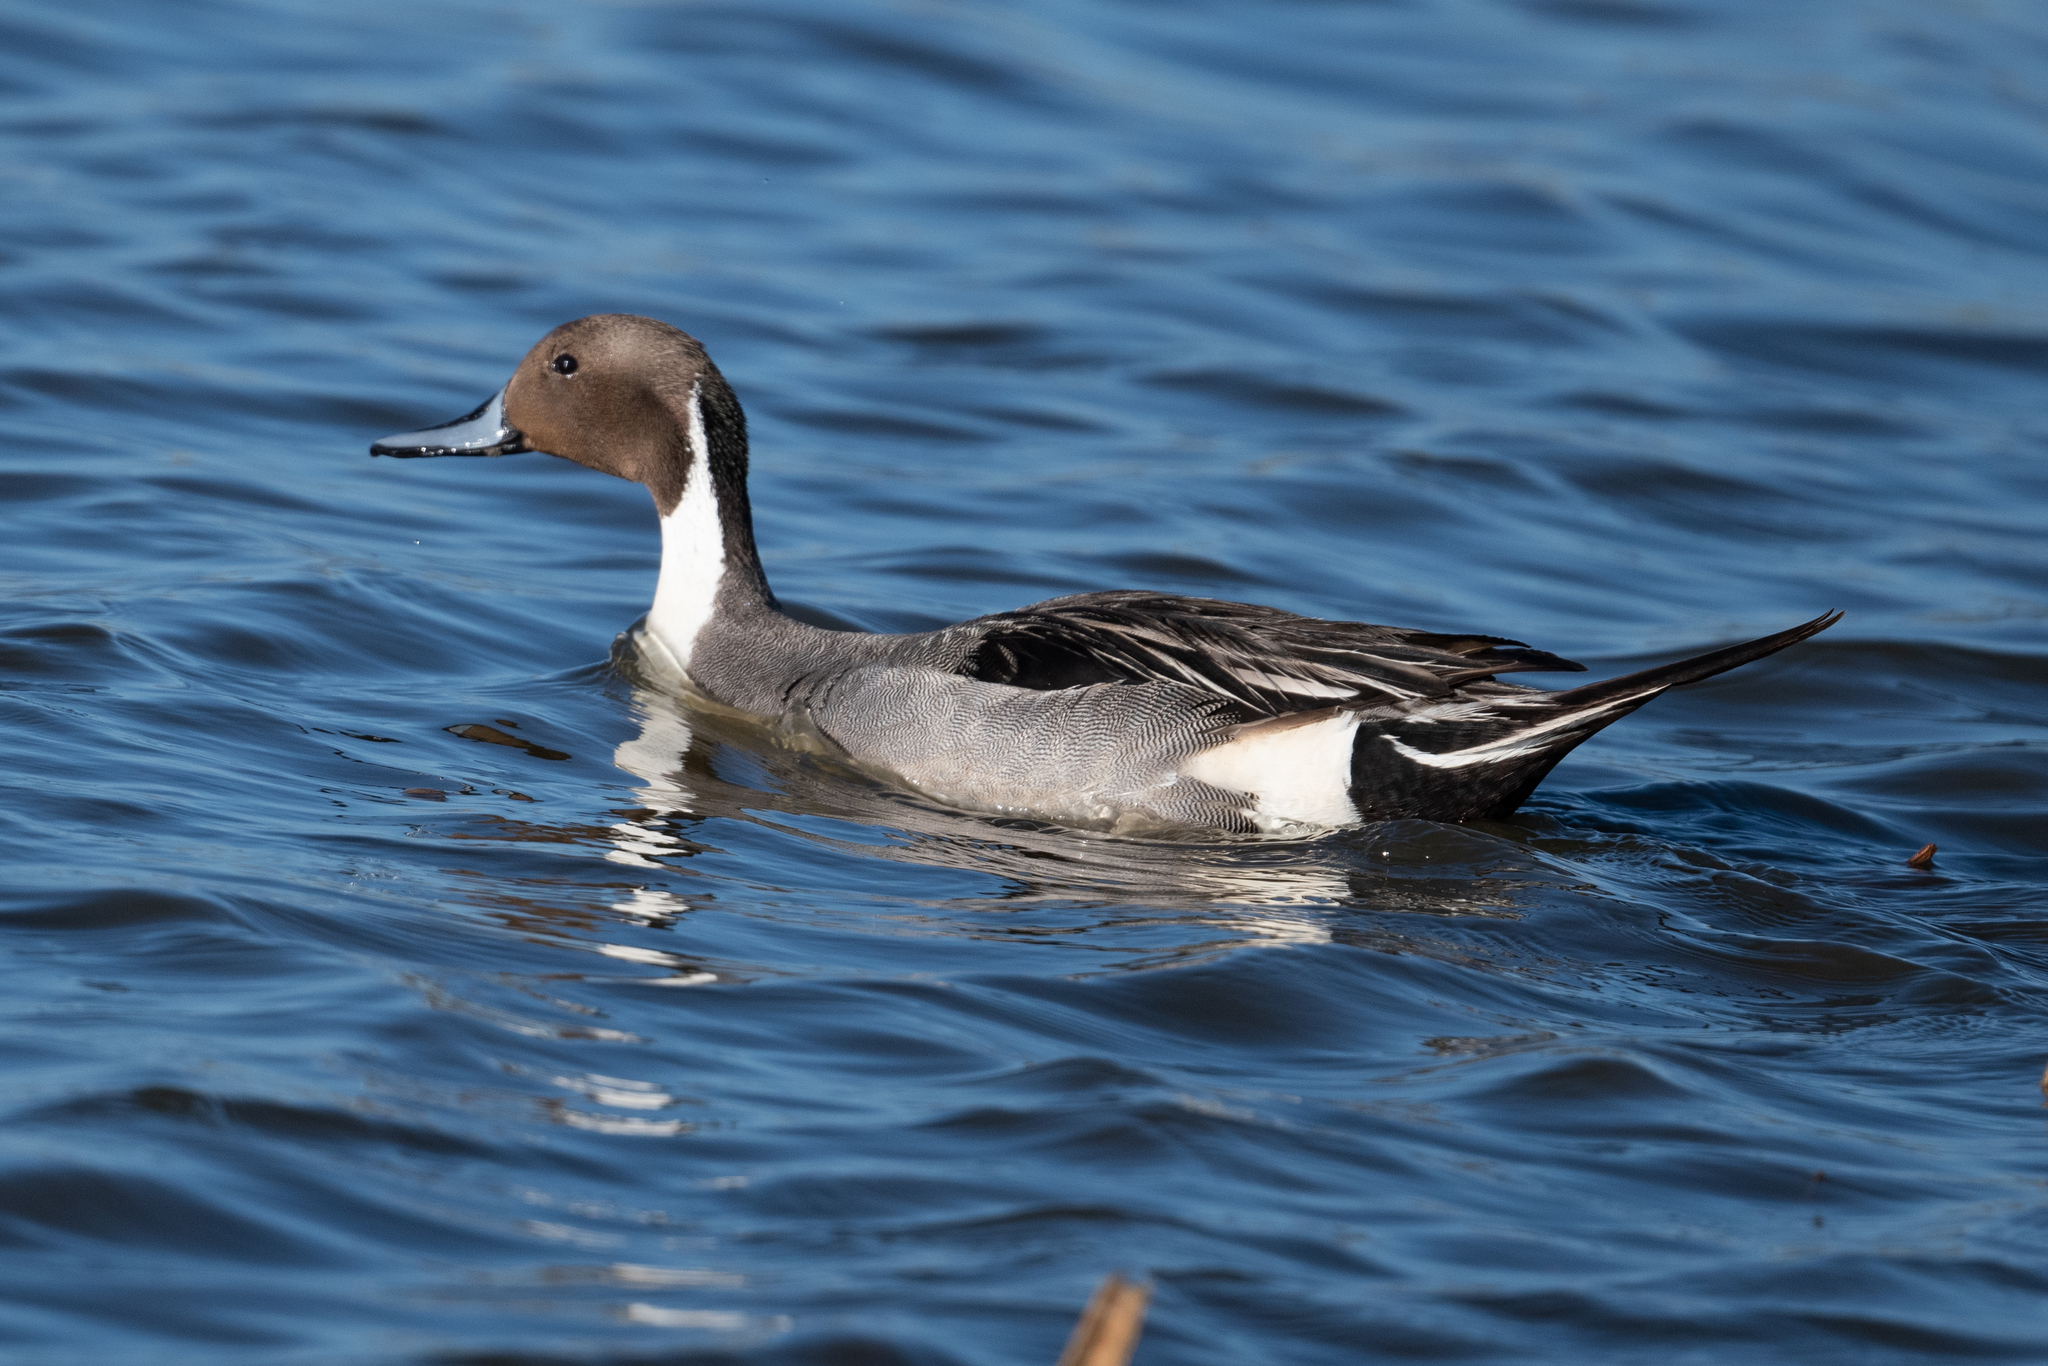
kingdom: Animalia
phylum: Chordata
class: Aves
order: Anseriformes
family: Anatidae
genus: Anas
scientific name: Anas acuta
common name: Northern pintail
